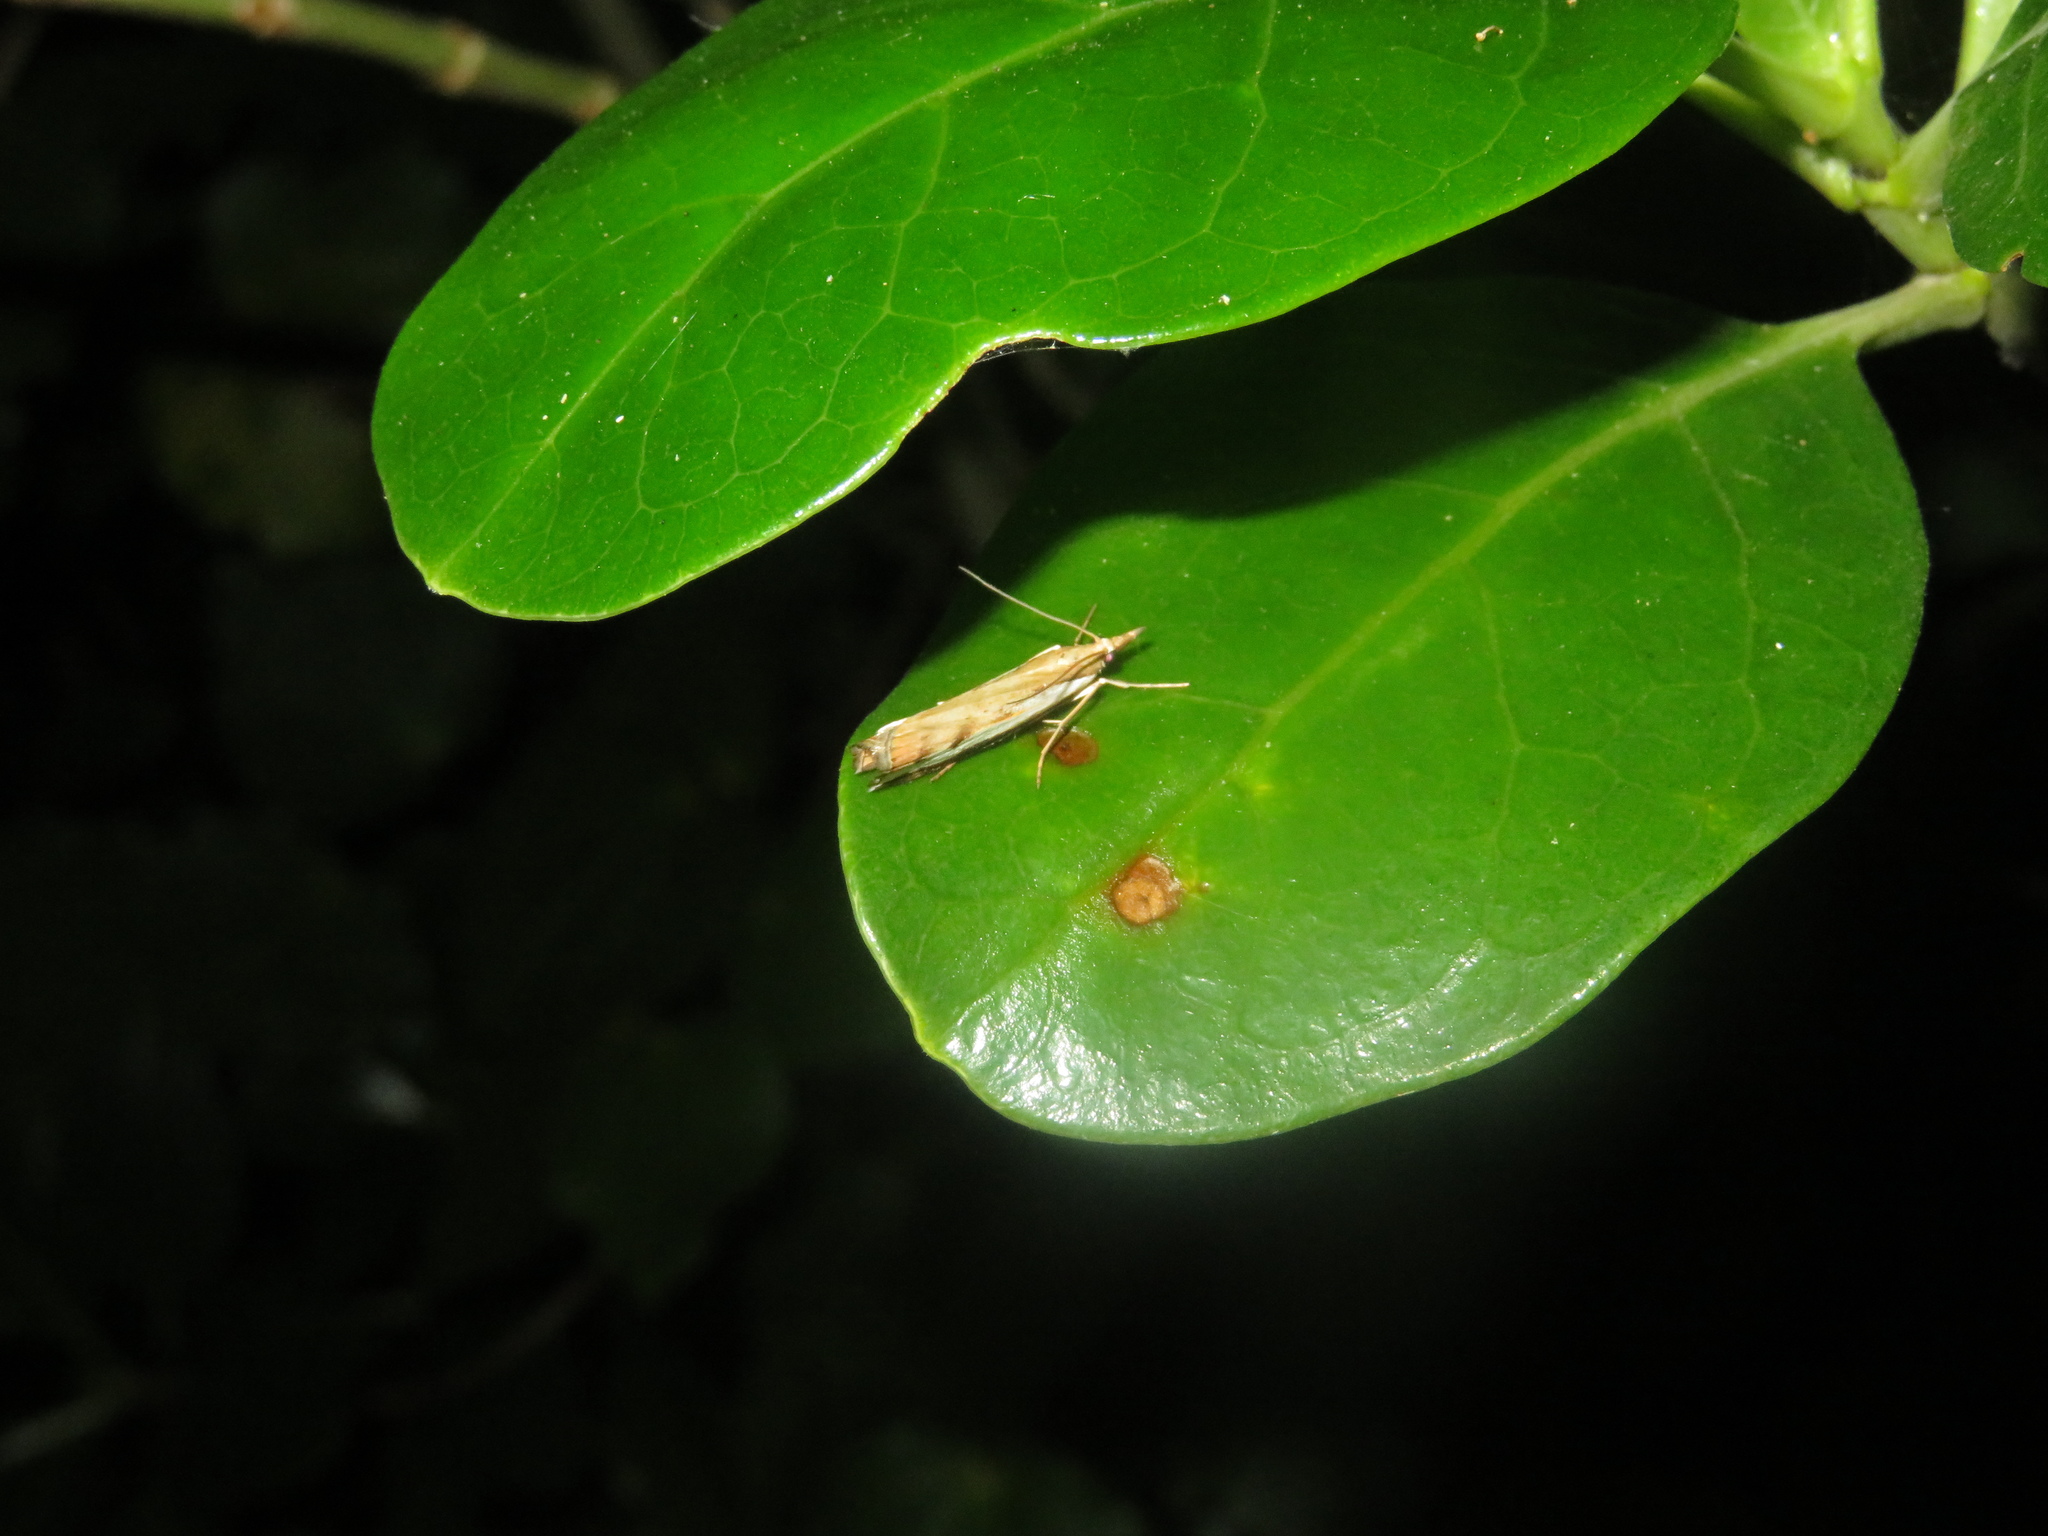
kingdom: Animalia
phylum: Arthropoda
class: Insecta
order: Lepidoptera
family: Crambidae
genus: Orocrambus
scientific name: Orocrambus flexuosellus
